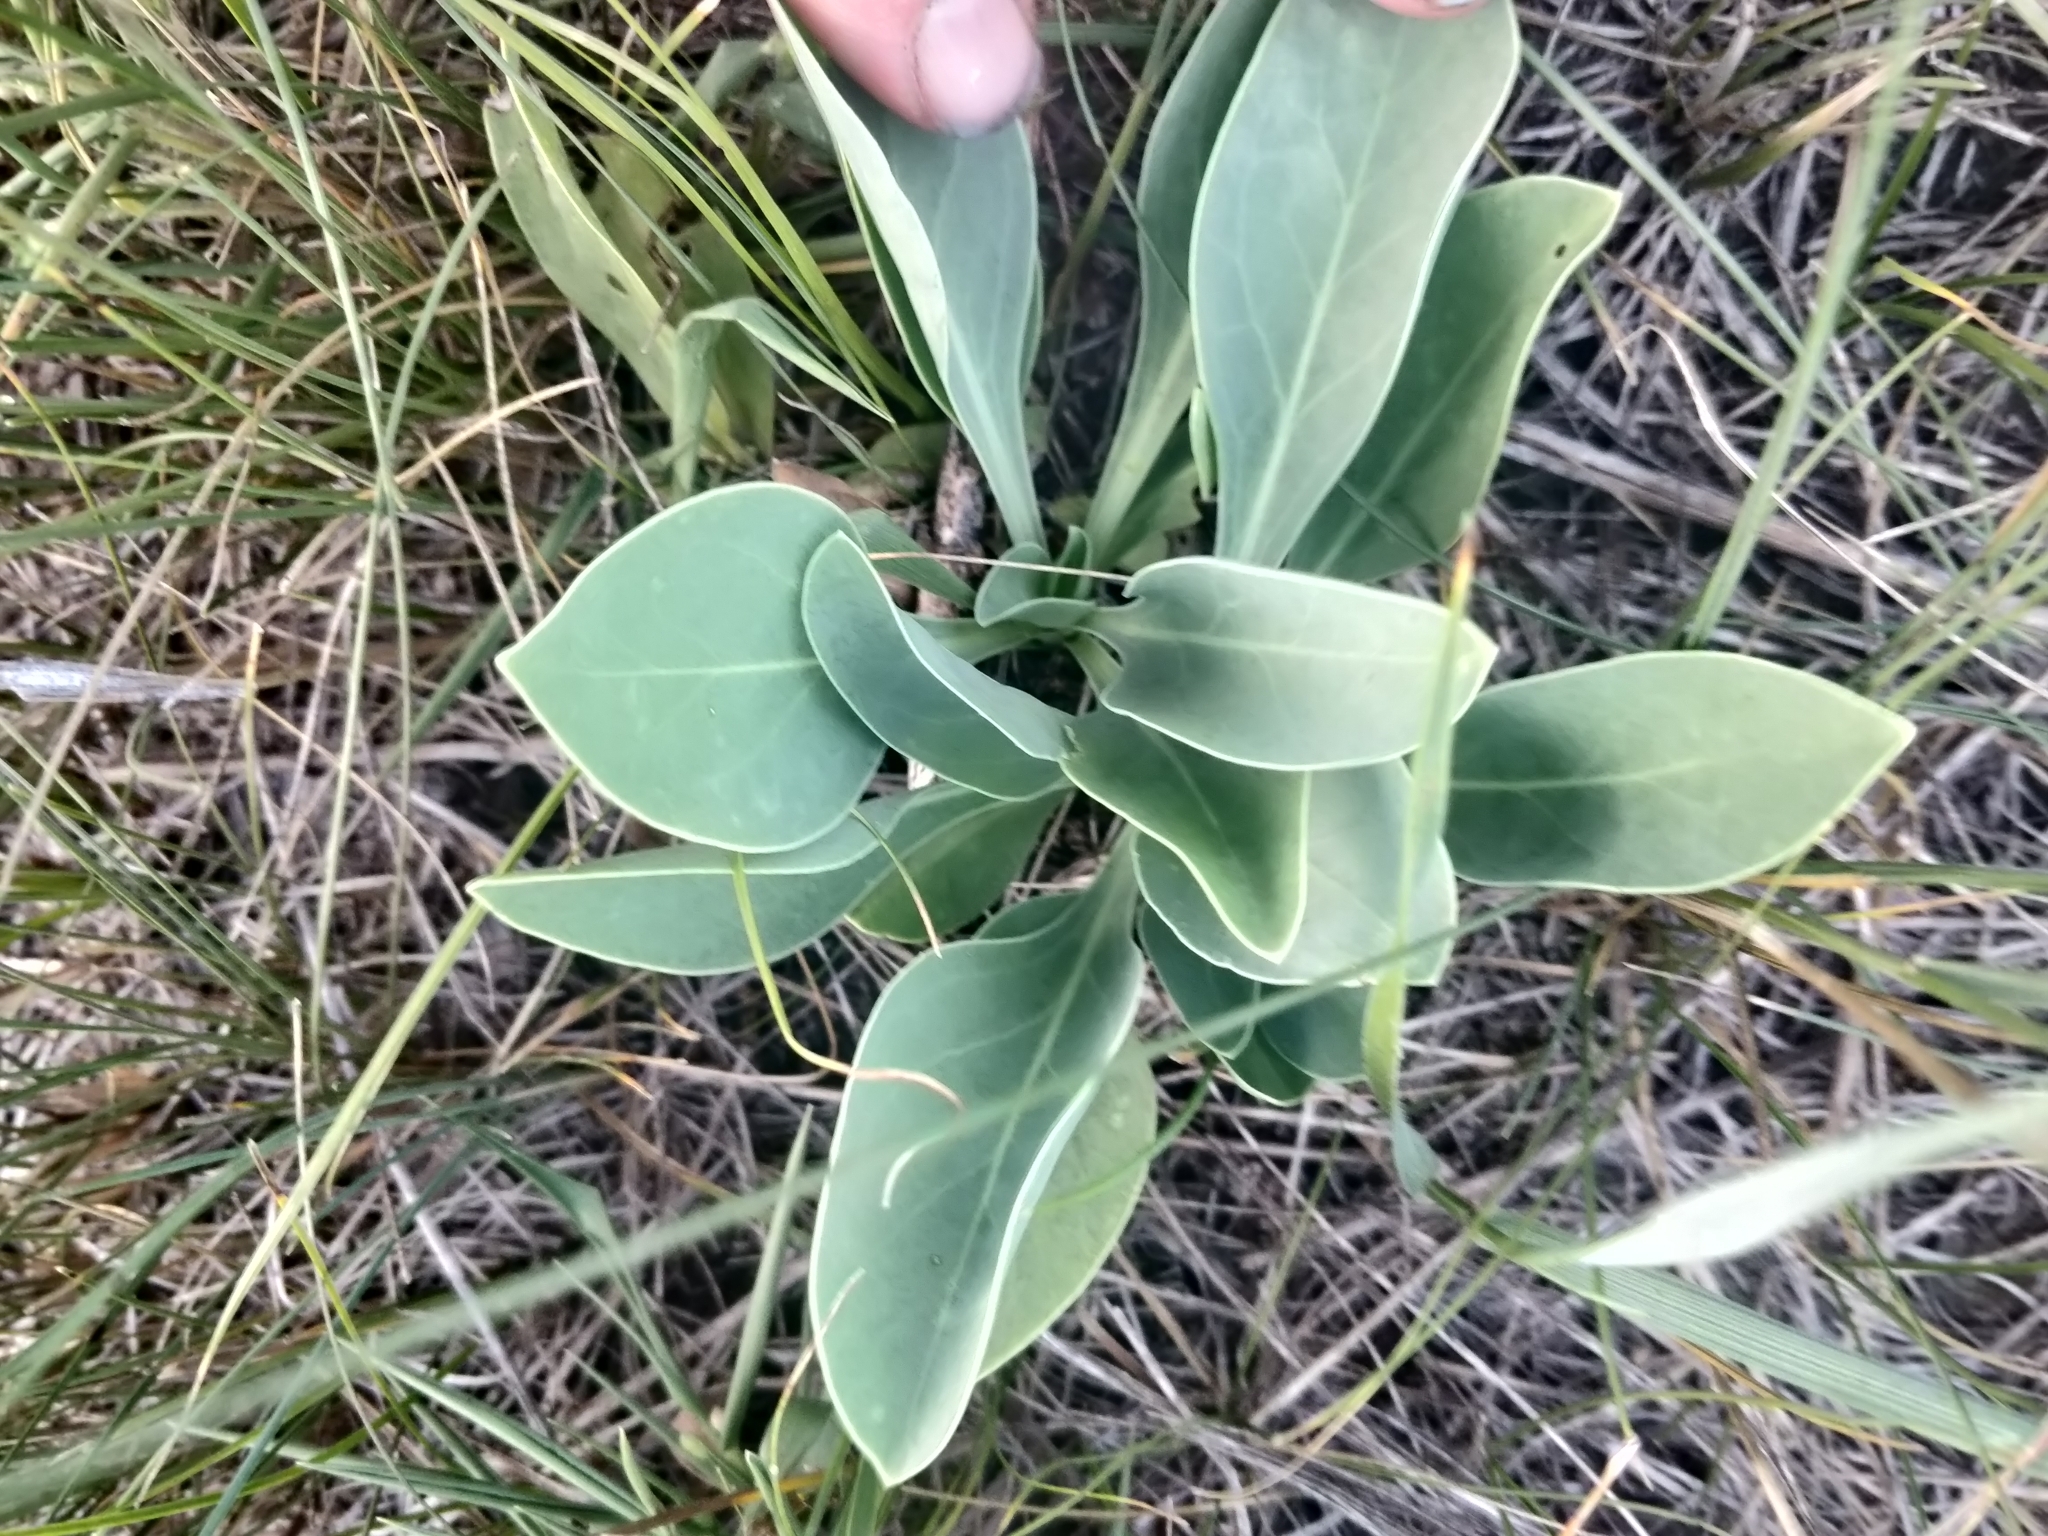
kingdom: Plantae
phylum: Tracheophyta
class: Magnoliopsida
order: Lamiales
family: Plantaginaceae
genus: Penstemon
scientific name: Penstemon
